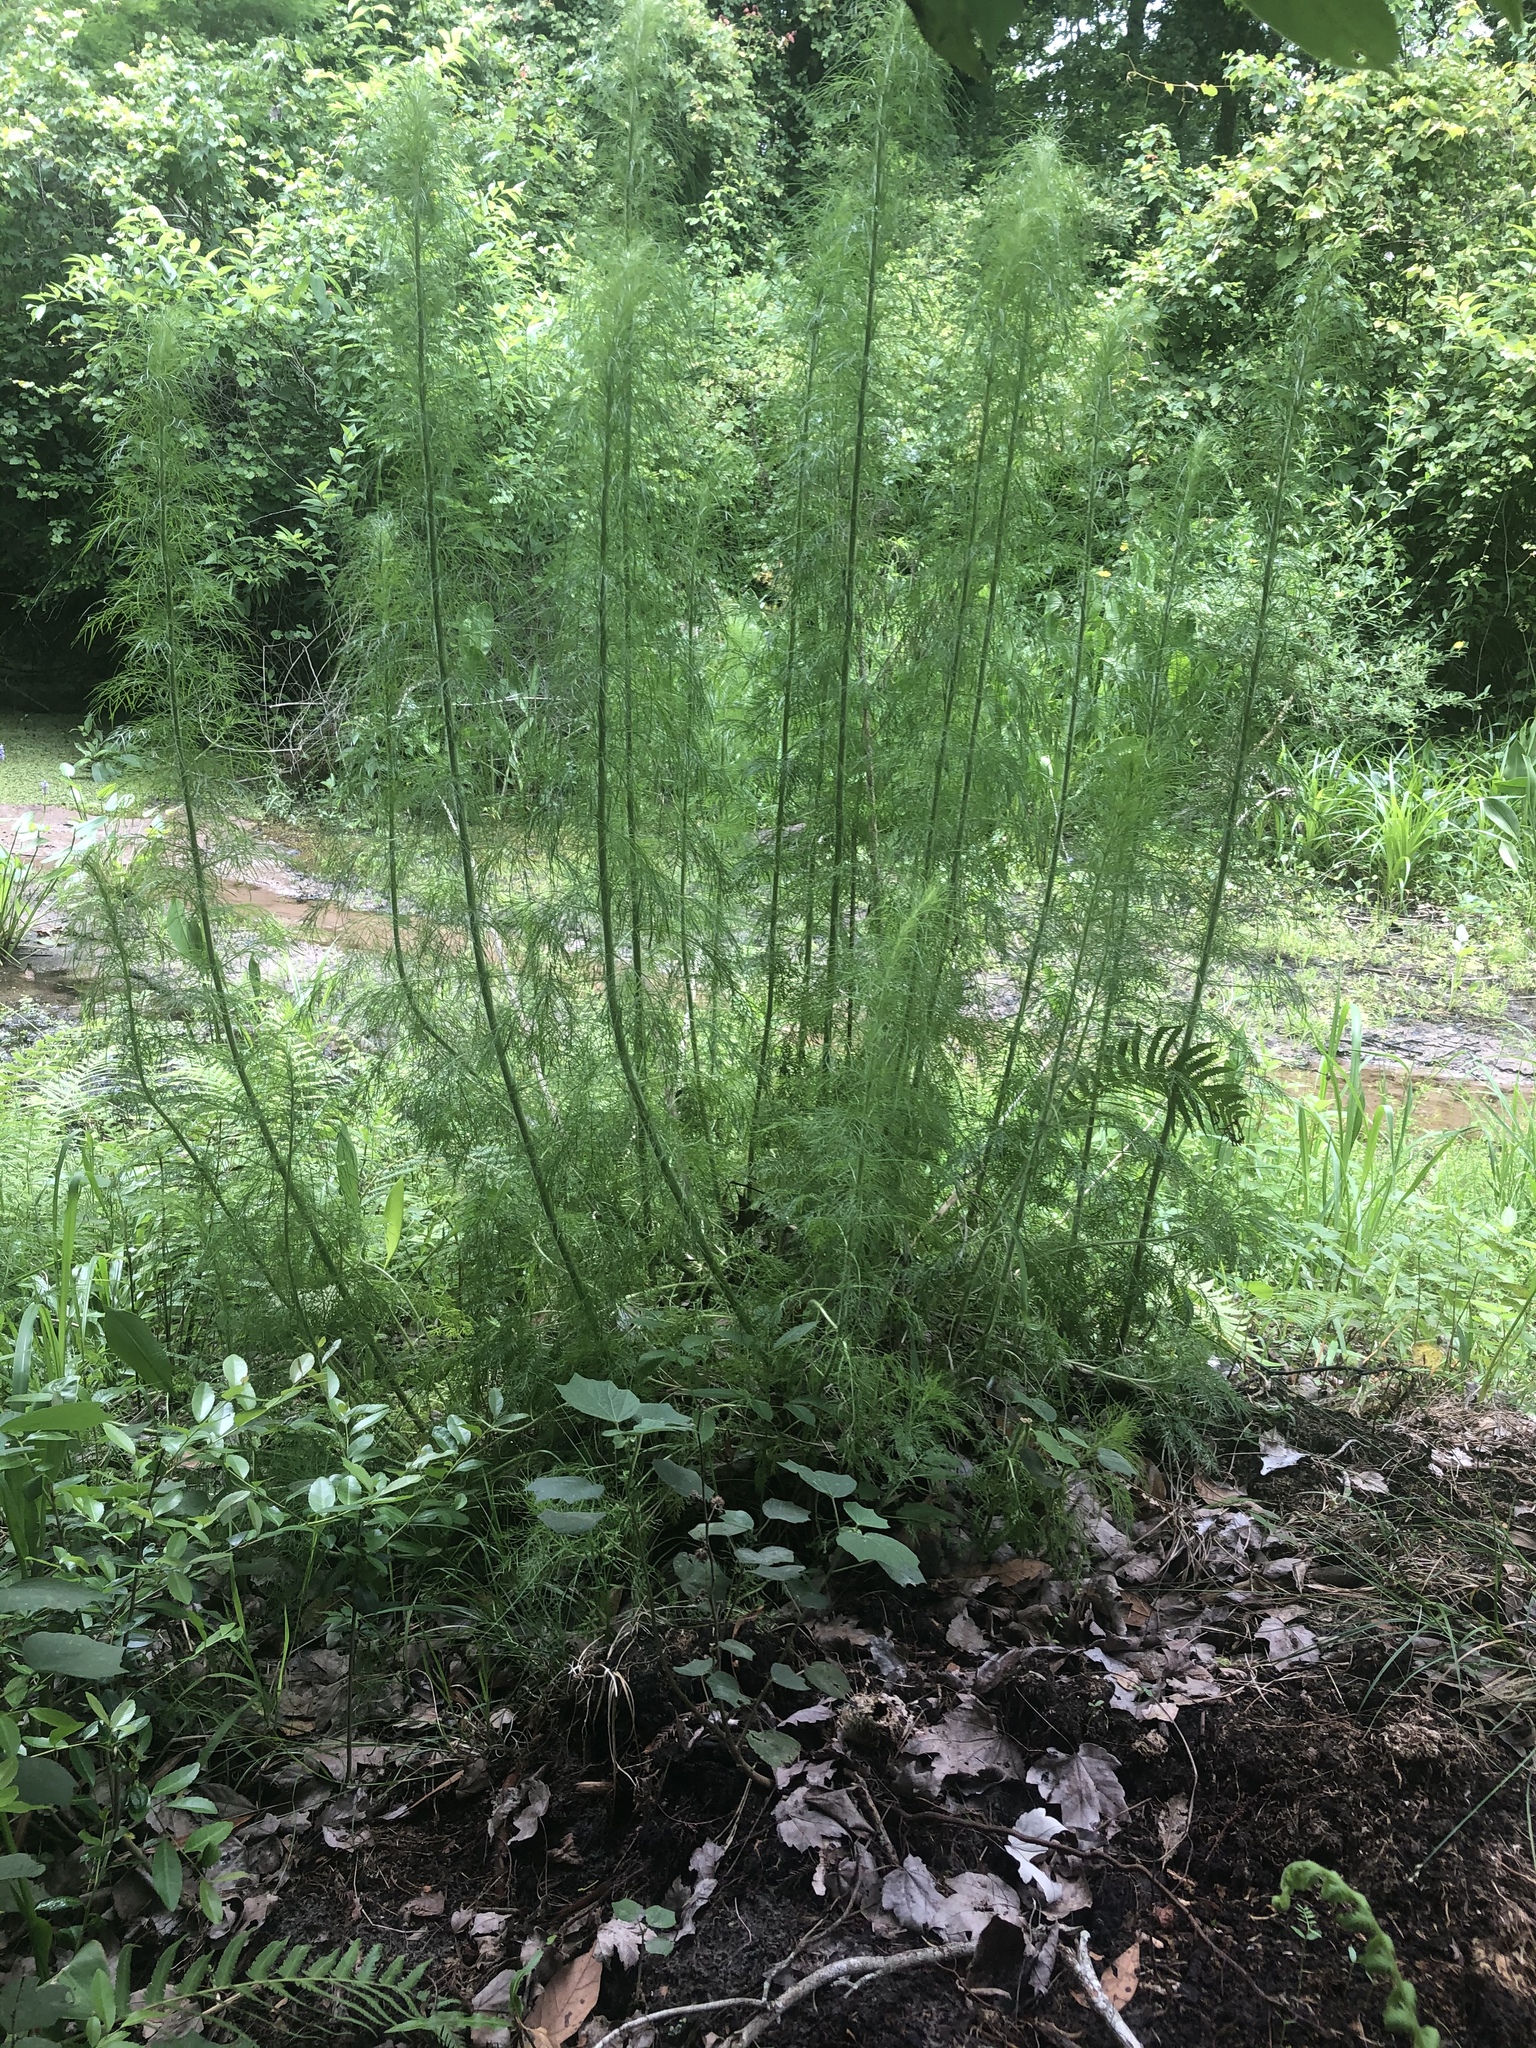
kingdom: Plantae
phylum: Tracheophyta
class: Magnoliopsida
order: Asterales
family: Asteraceae
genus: Eupatorium
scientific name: Eupatorium capillifolium
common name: Dog-fennel
